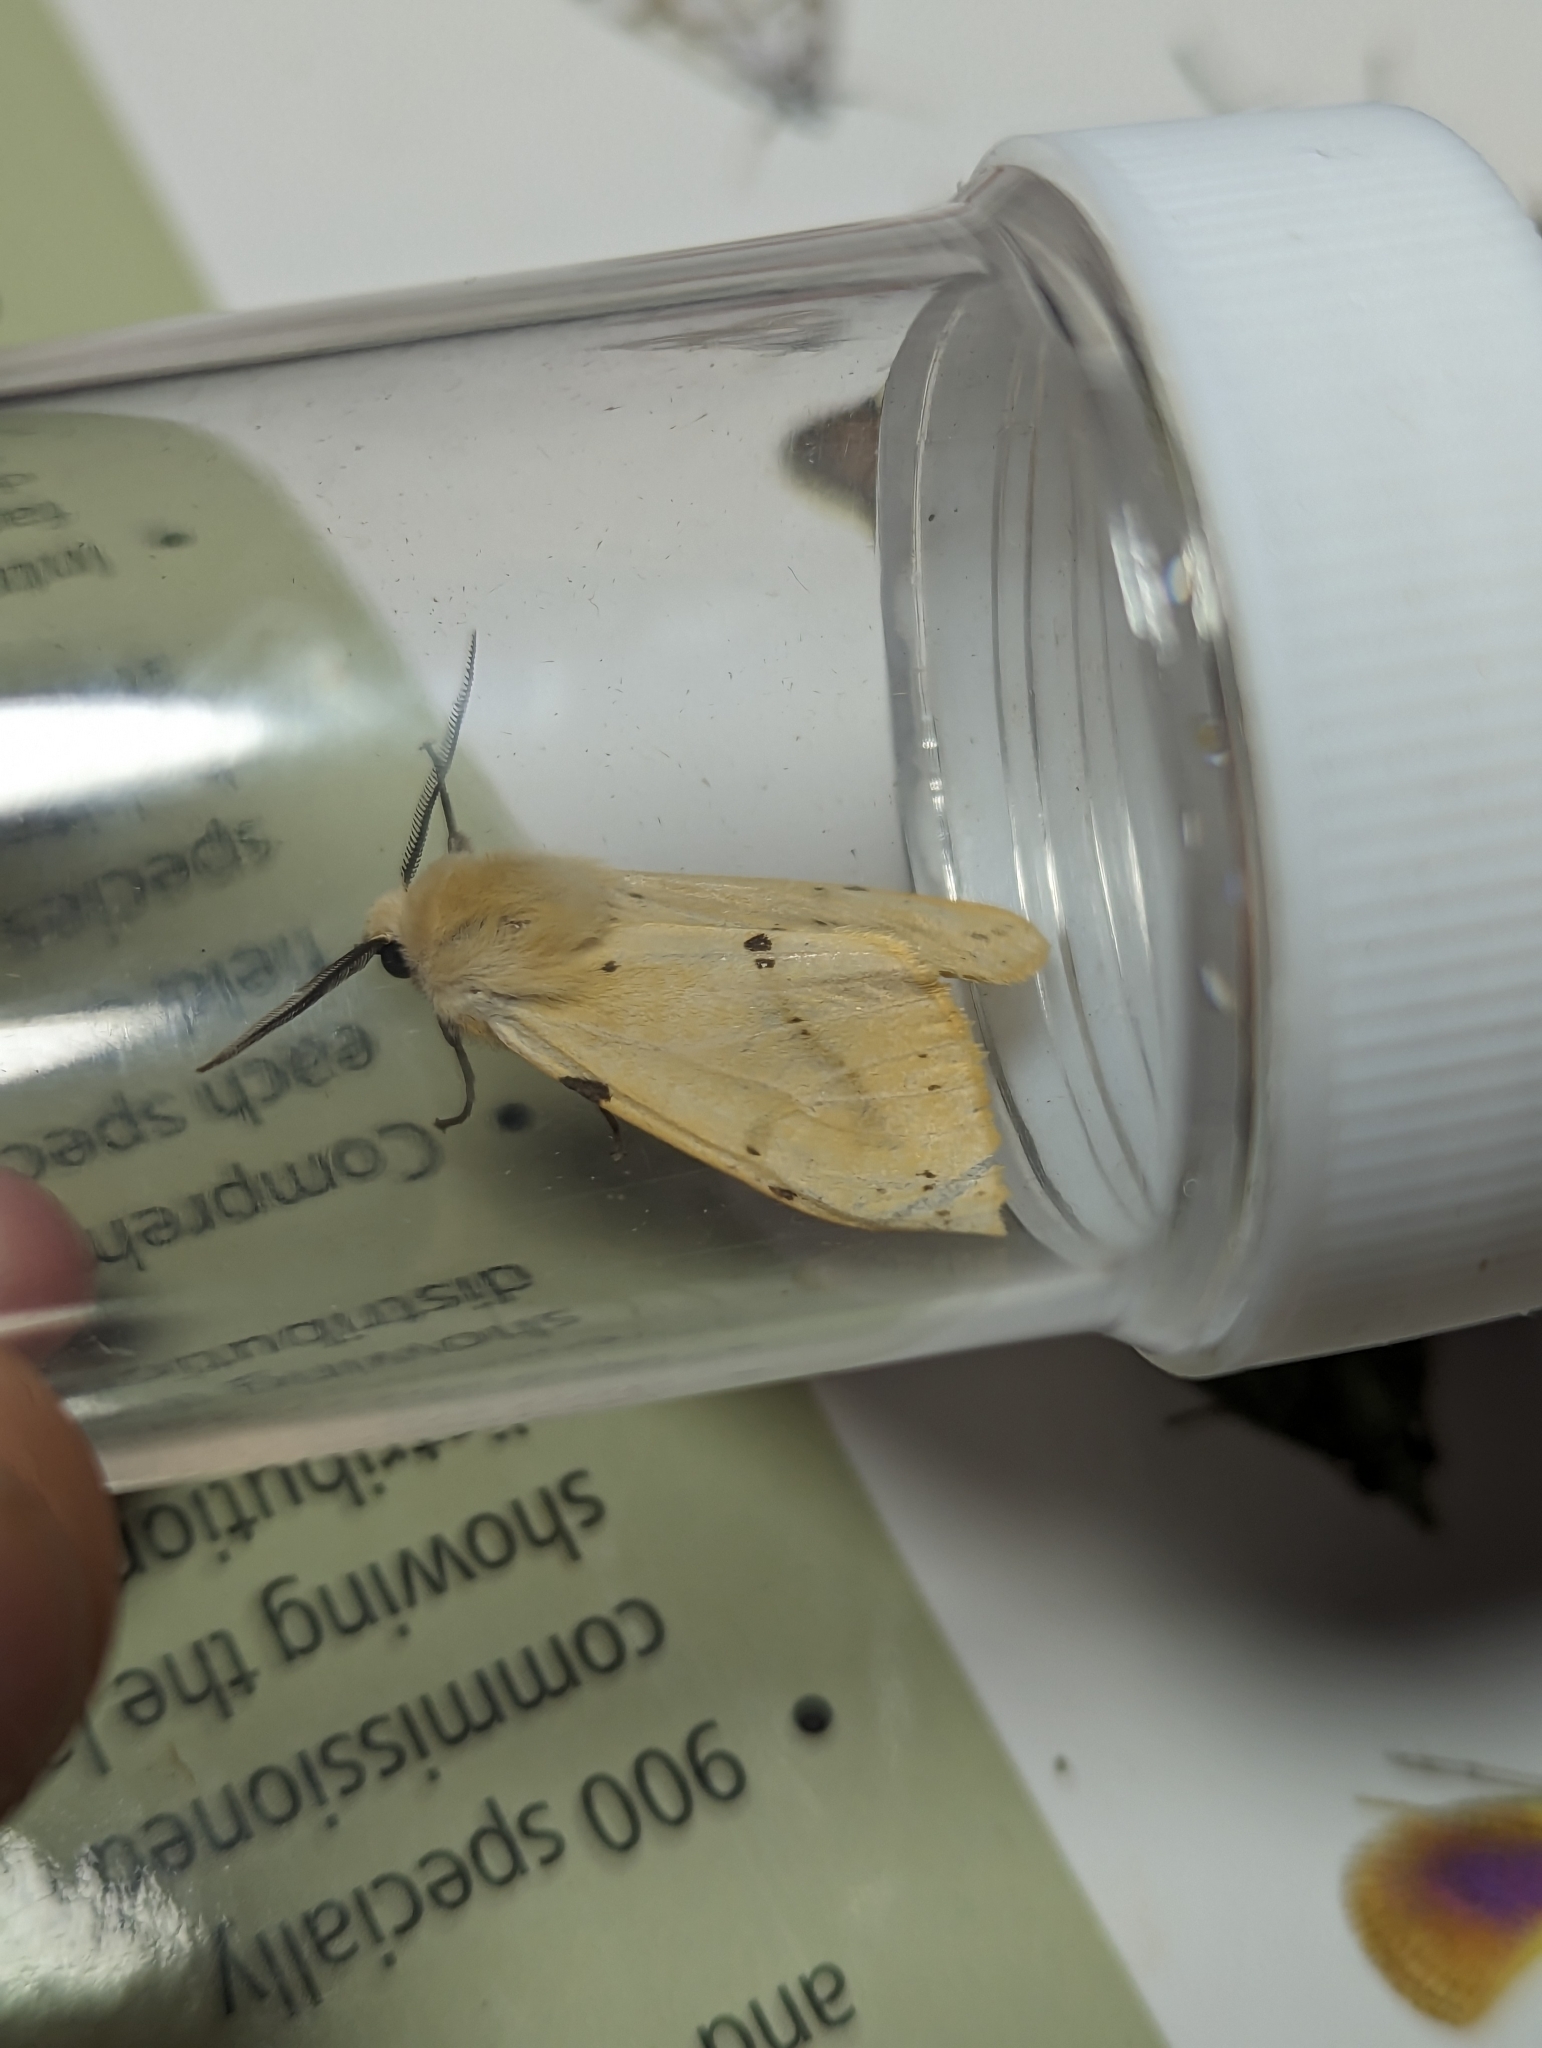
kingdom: Animalia
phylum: Arthropoda
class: Insecta
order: Lepidoptera
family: Erebidae
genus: Spilarctia
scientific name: Spilarctia lutea
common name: Buff ermine
